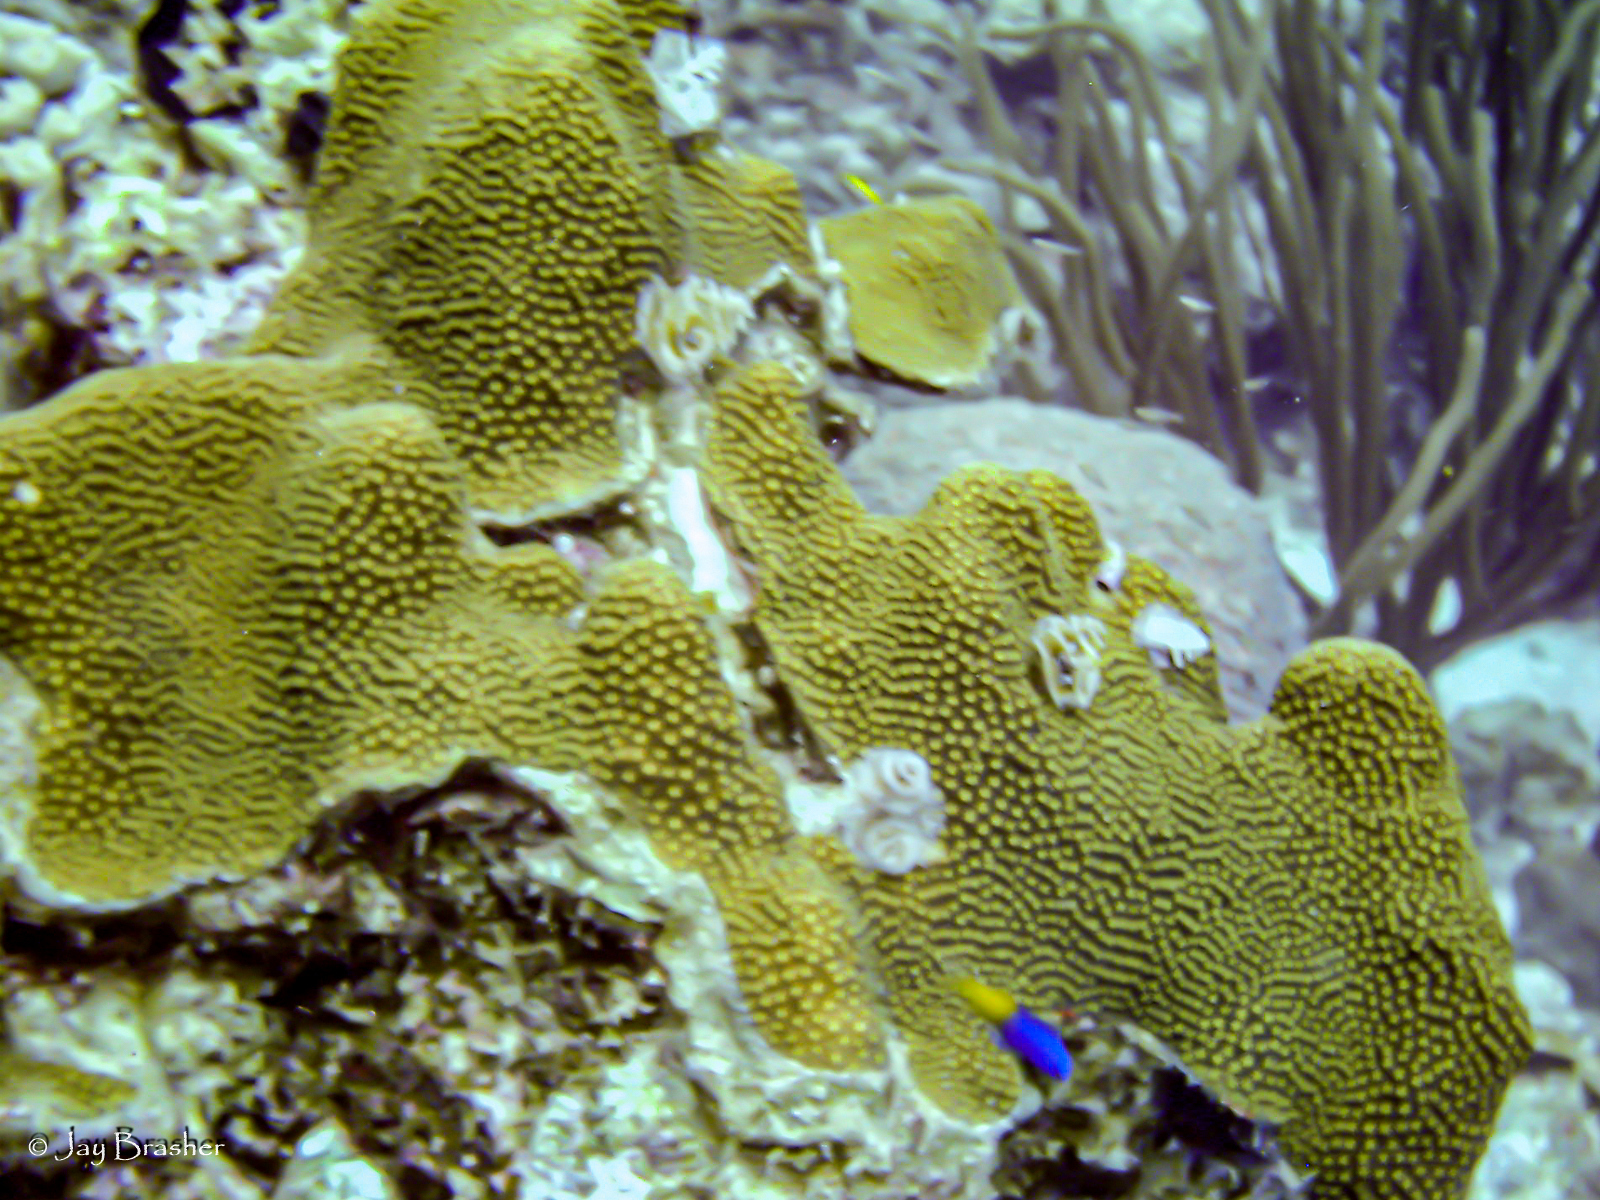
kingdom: Animalia
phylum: Chordata
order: Perciformes
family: Grammatidae
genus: Gramma
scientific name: Gramma loreto
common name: Fairy basslet
